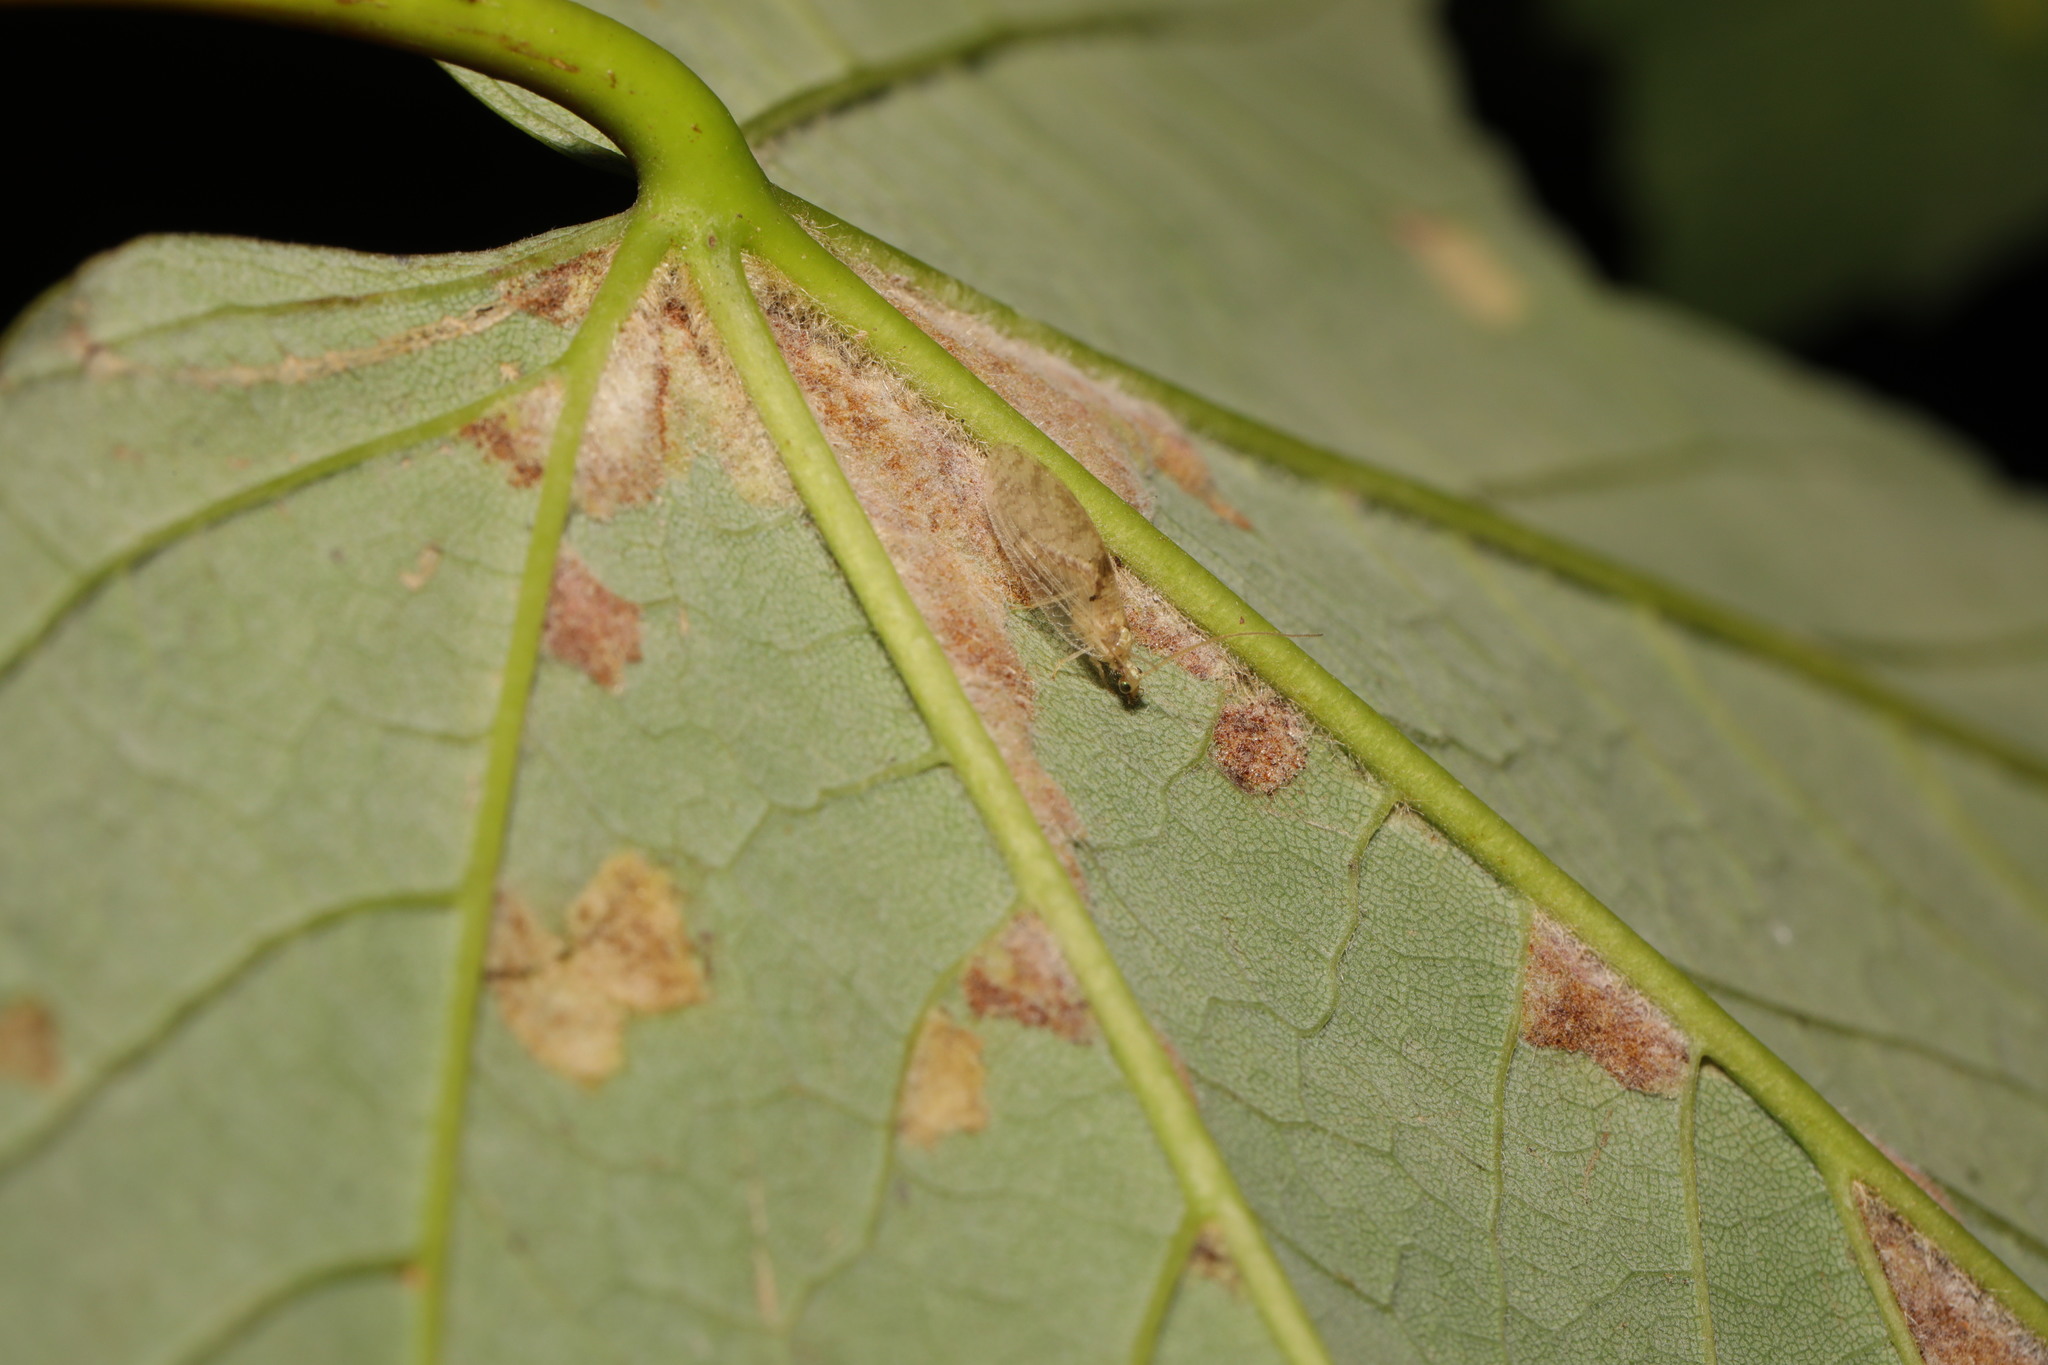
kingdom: Animalia
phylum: Arthropoda
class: Insecta
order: Neuroptera
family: Hemerobiidae
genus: Hemerobius
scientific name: Hemerobius lutescens
